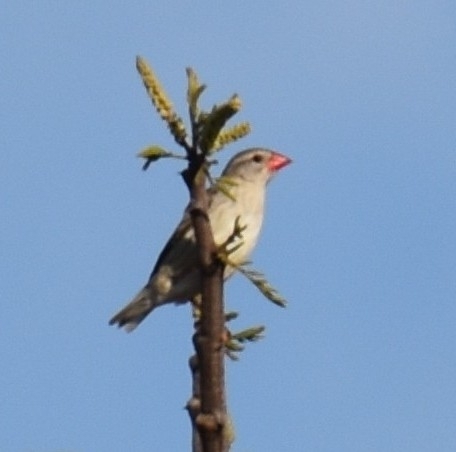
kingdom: Animalia
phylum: Chordata
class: Aves
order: Passeriformes
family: Ploceidae
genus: Quelea
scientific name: Quelea quelea
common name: Red-billed quelea
